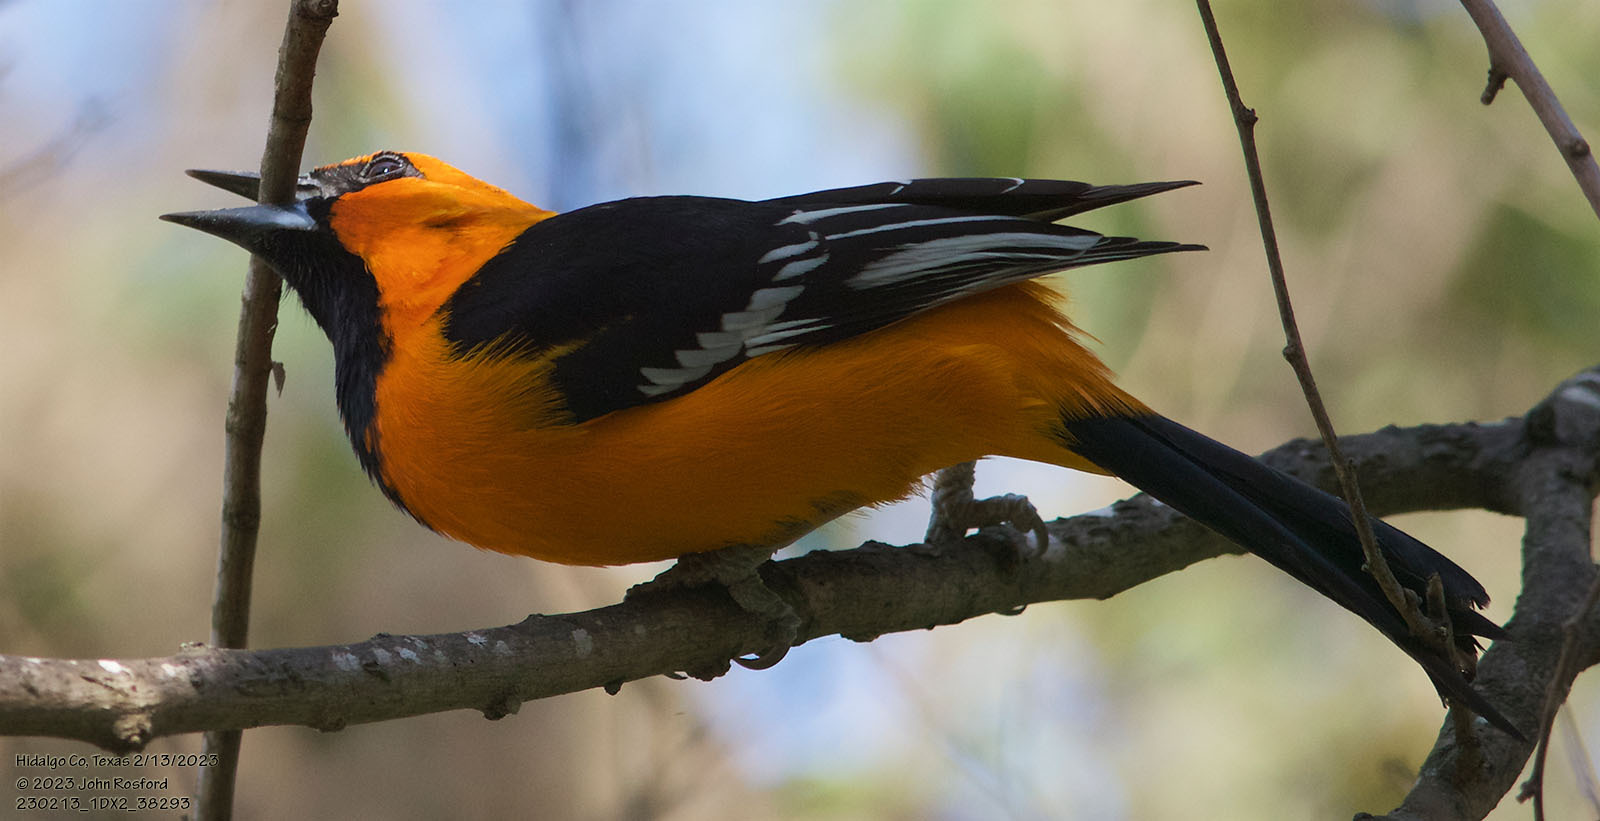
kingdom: Animalia
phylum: Chordata
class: Aves
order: Passeriformes
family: Icteridae
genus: Icterus
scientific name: Icterus gularis
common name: Altamira oriole
